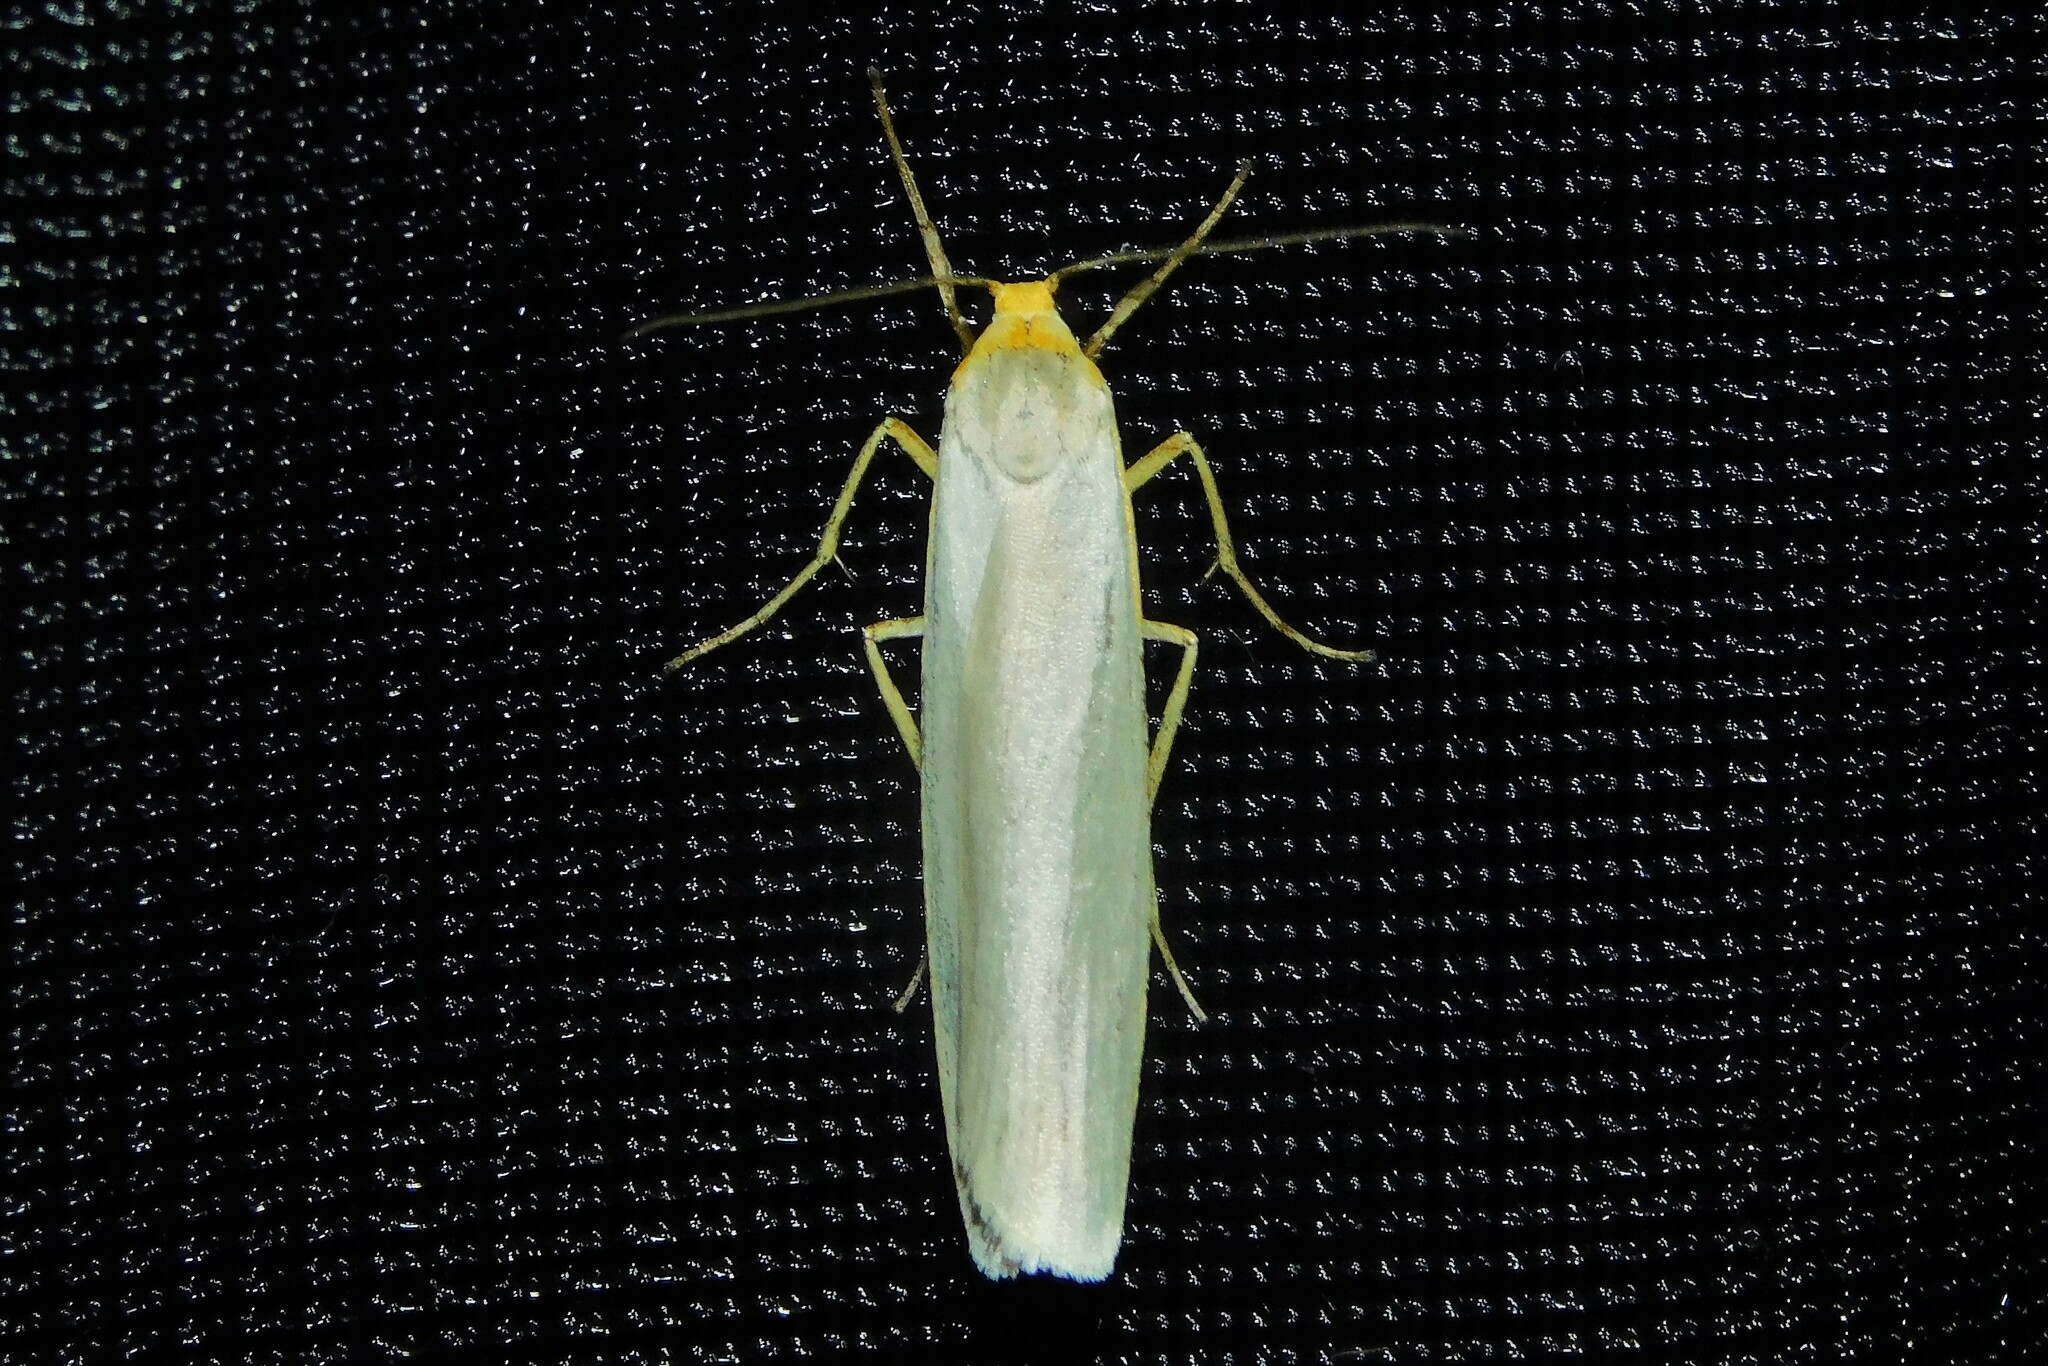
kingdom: Animalia
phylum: Arthropoda
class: Insecta
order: Lepidoptera
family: Erebidae
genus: Eilema
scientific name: Eilema caniola
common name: Hoary footman
